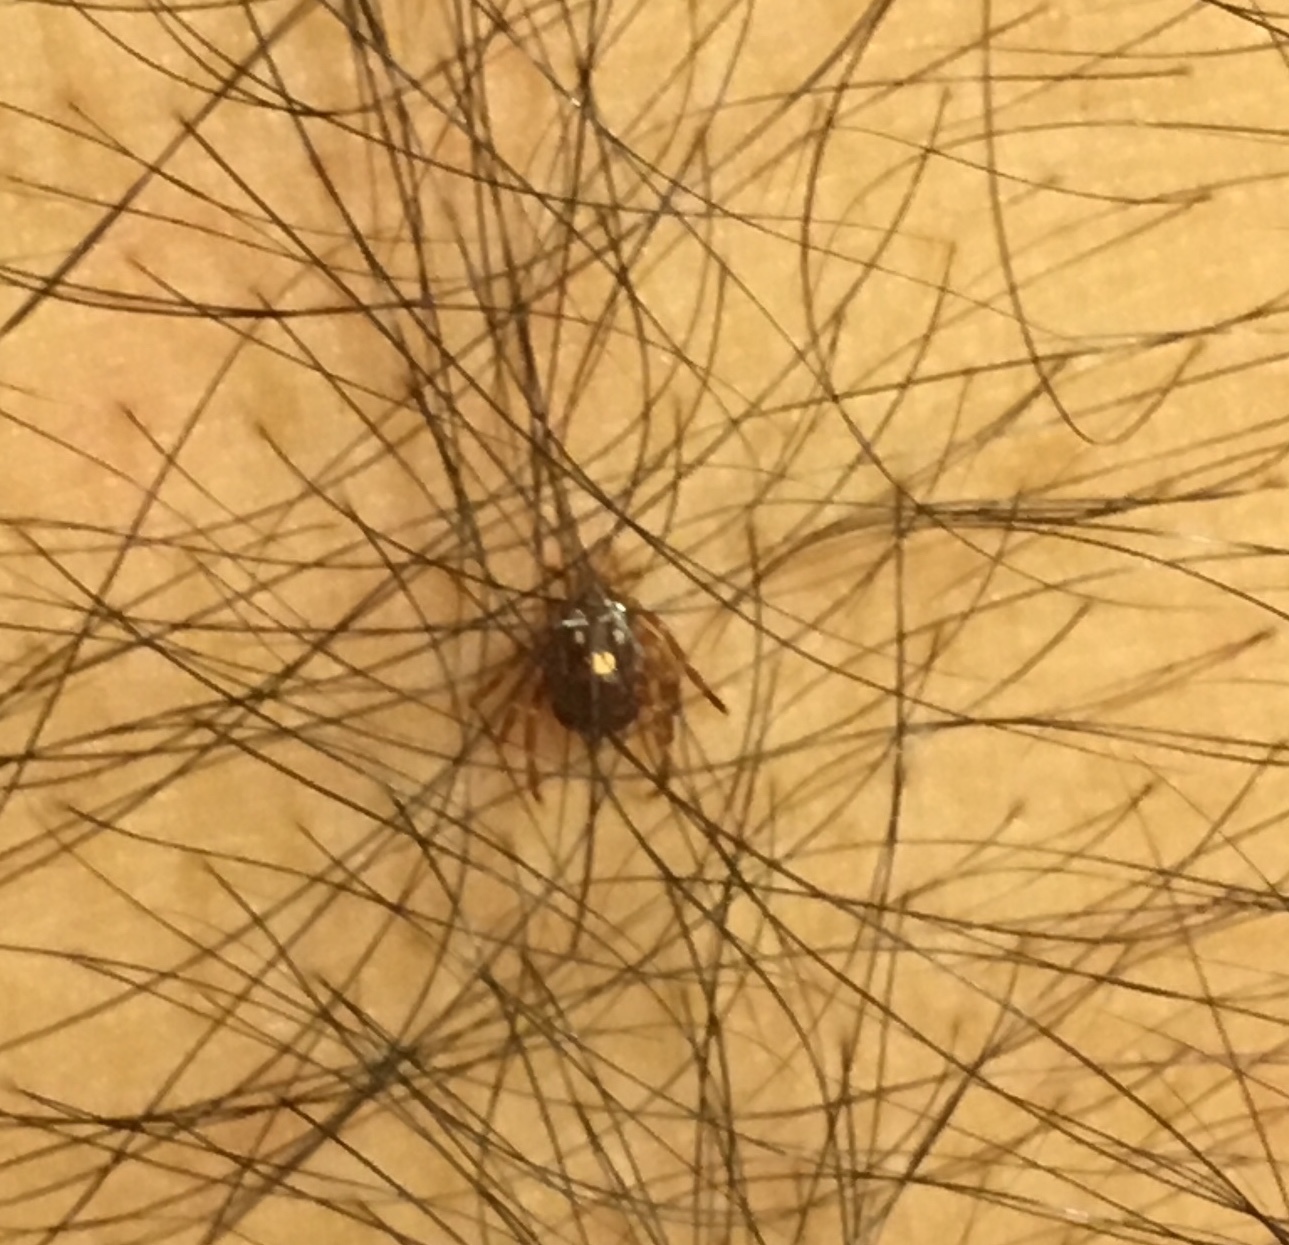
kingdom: Animalia
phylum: Arthropoda
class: Arachnida
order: Ixodida
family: Ixodidae
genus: Amblyomma
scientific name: Amblyomma americanum
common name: Lone star tick
